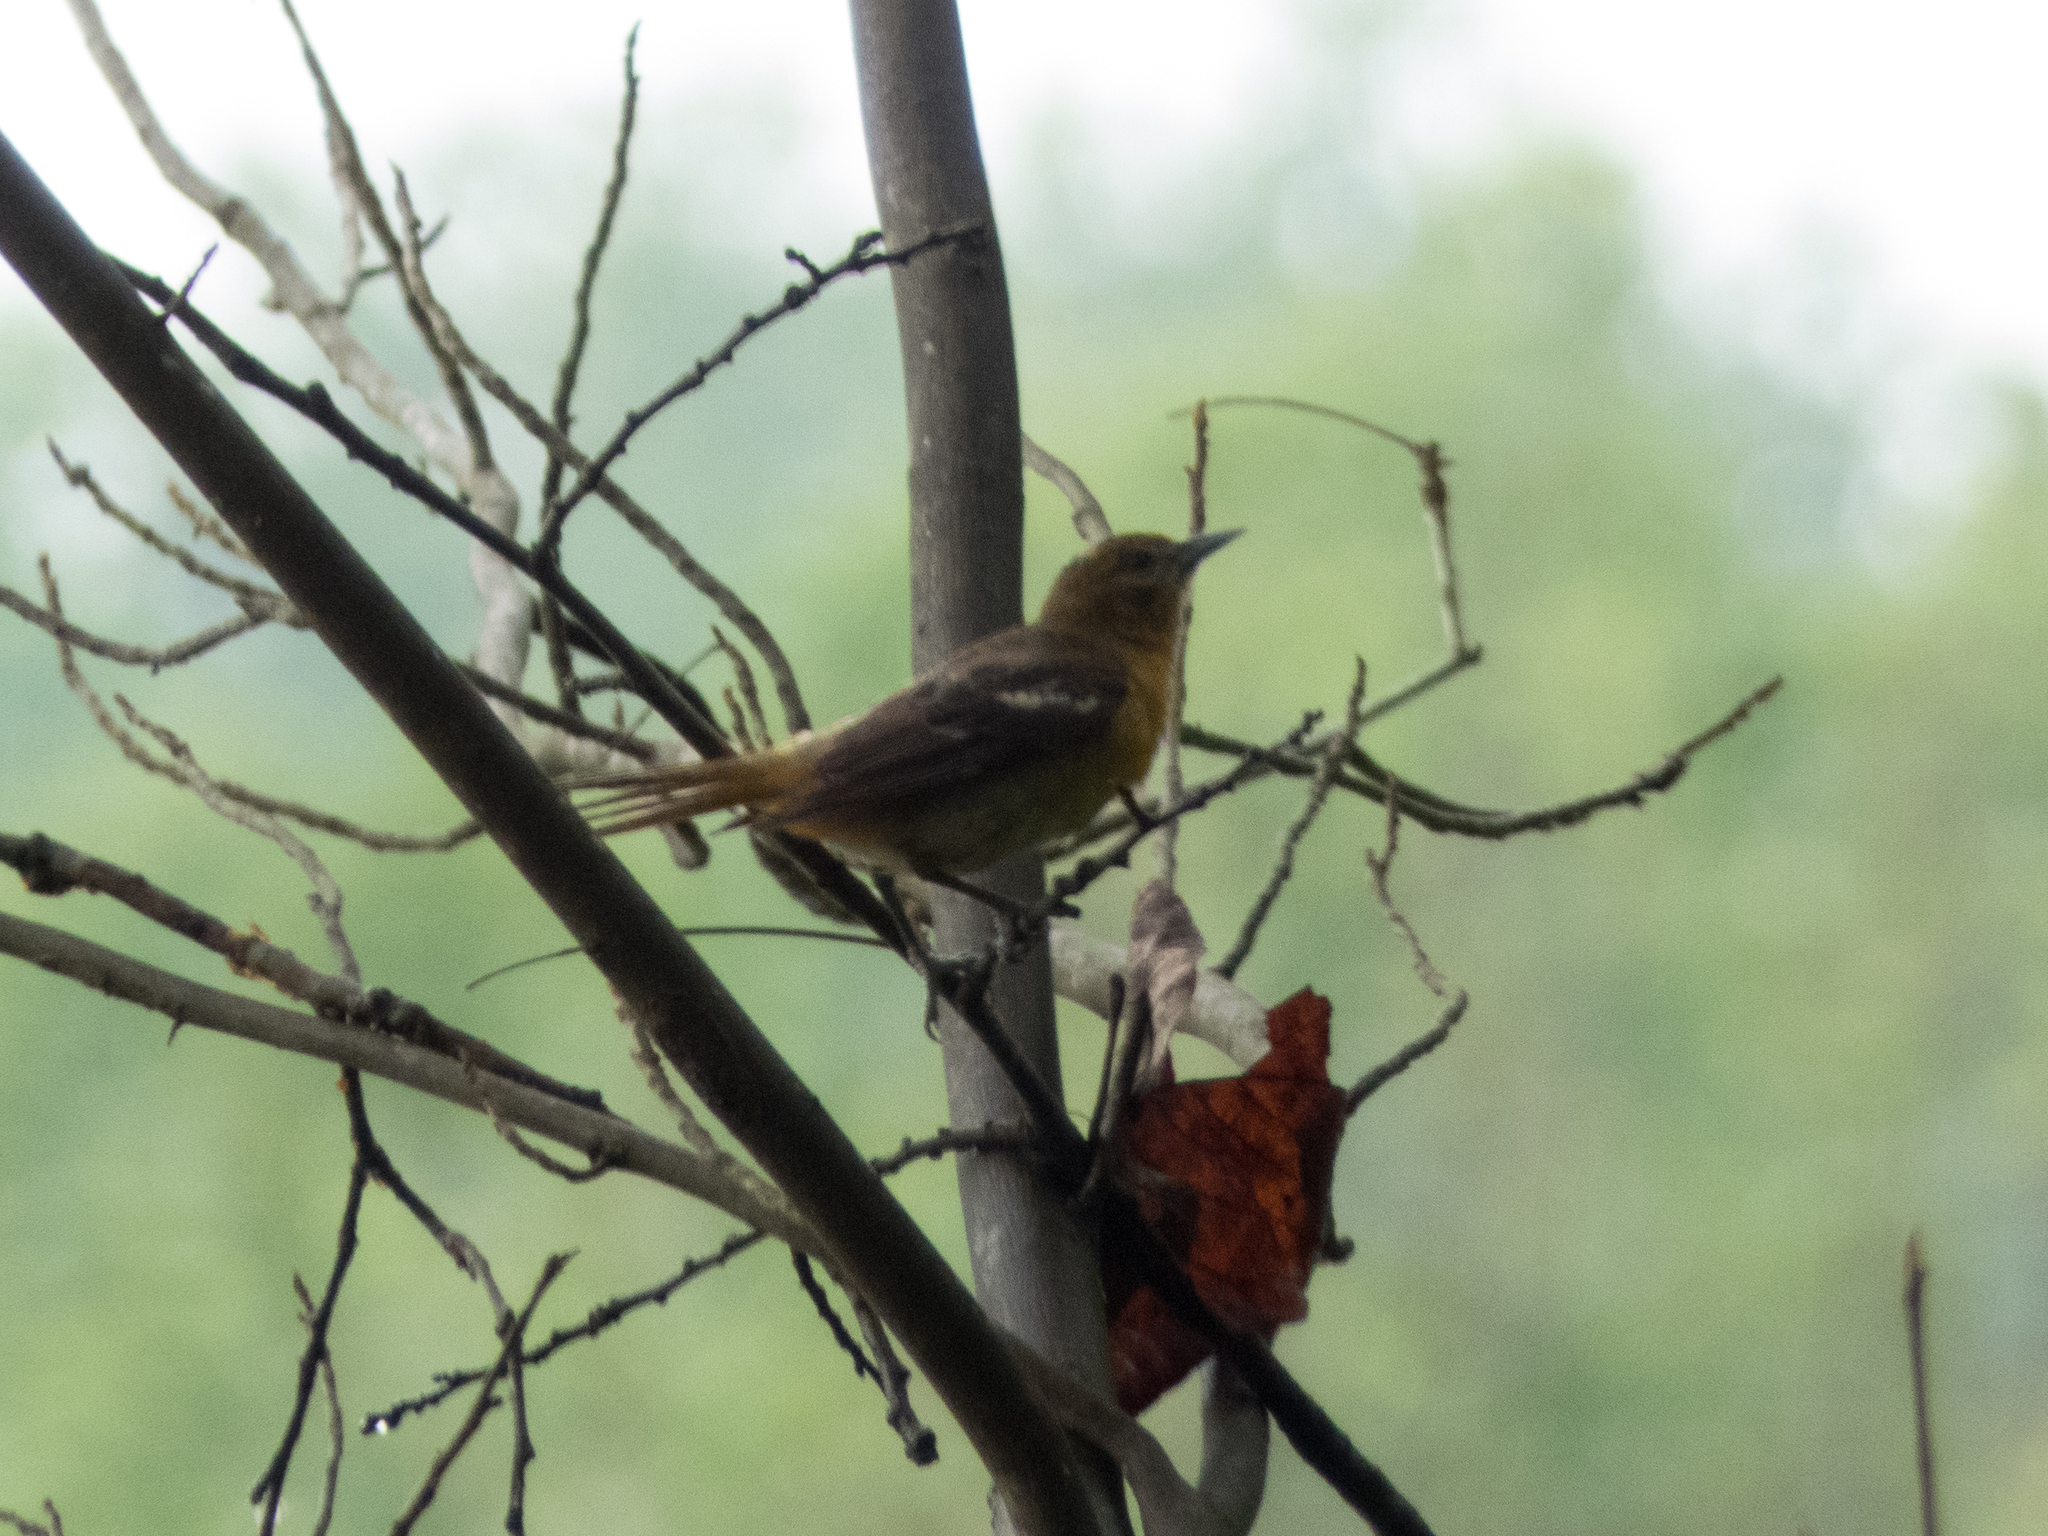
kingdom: Animalia
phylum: Chordata
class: Aves
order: Passeriformes
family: Icteridae
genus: Icterus
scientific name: Icterus galbula
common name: Baltimore oriole
